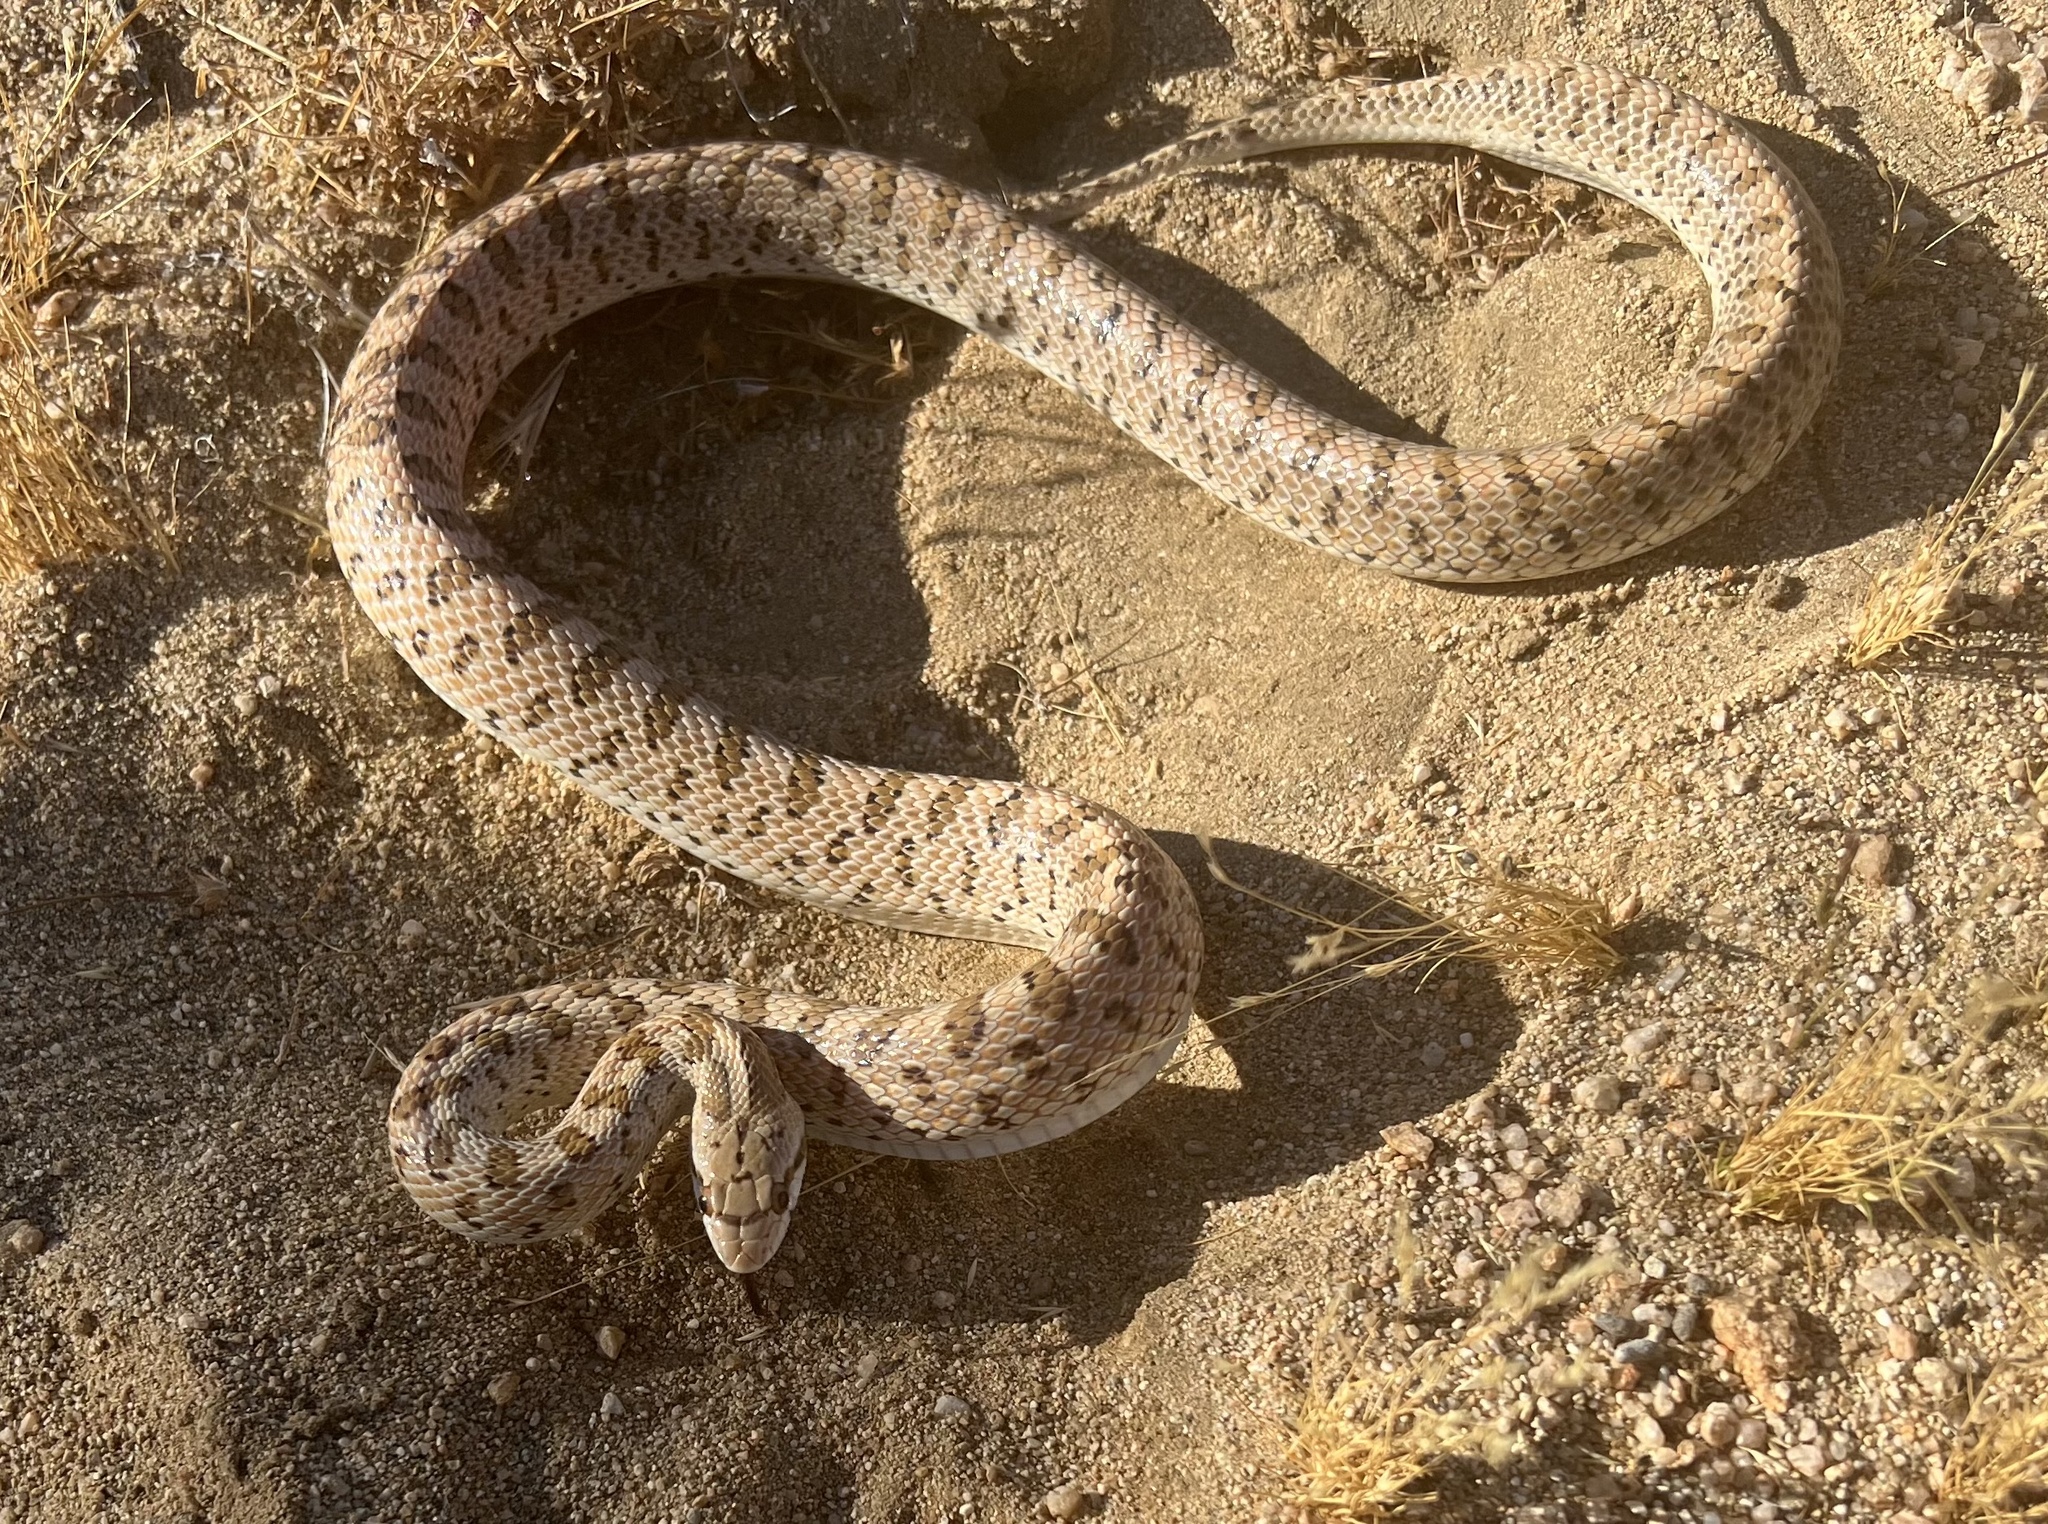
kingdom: Animalia
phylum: Chordata
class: Squamata
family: Colubridae
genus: Arizona
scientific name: Arizona elegans
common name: Glossy snake
